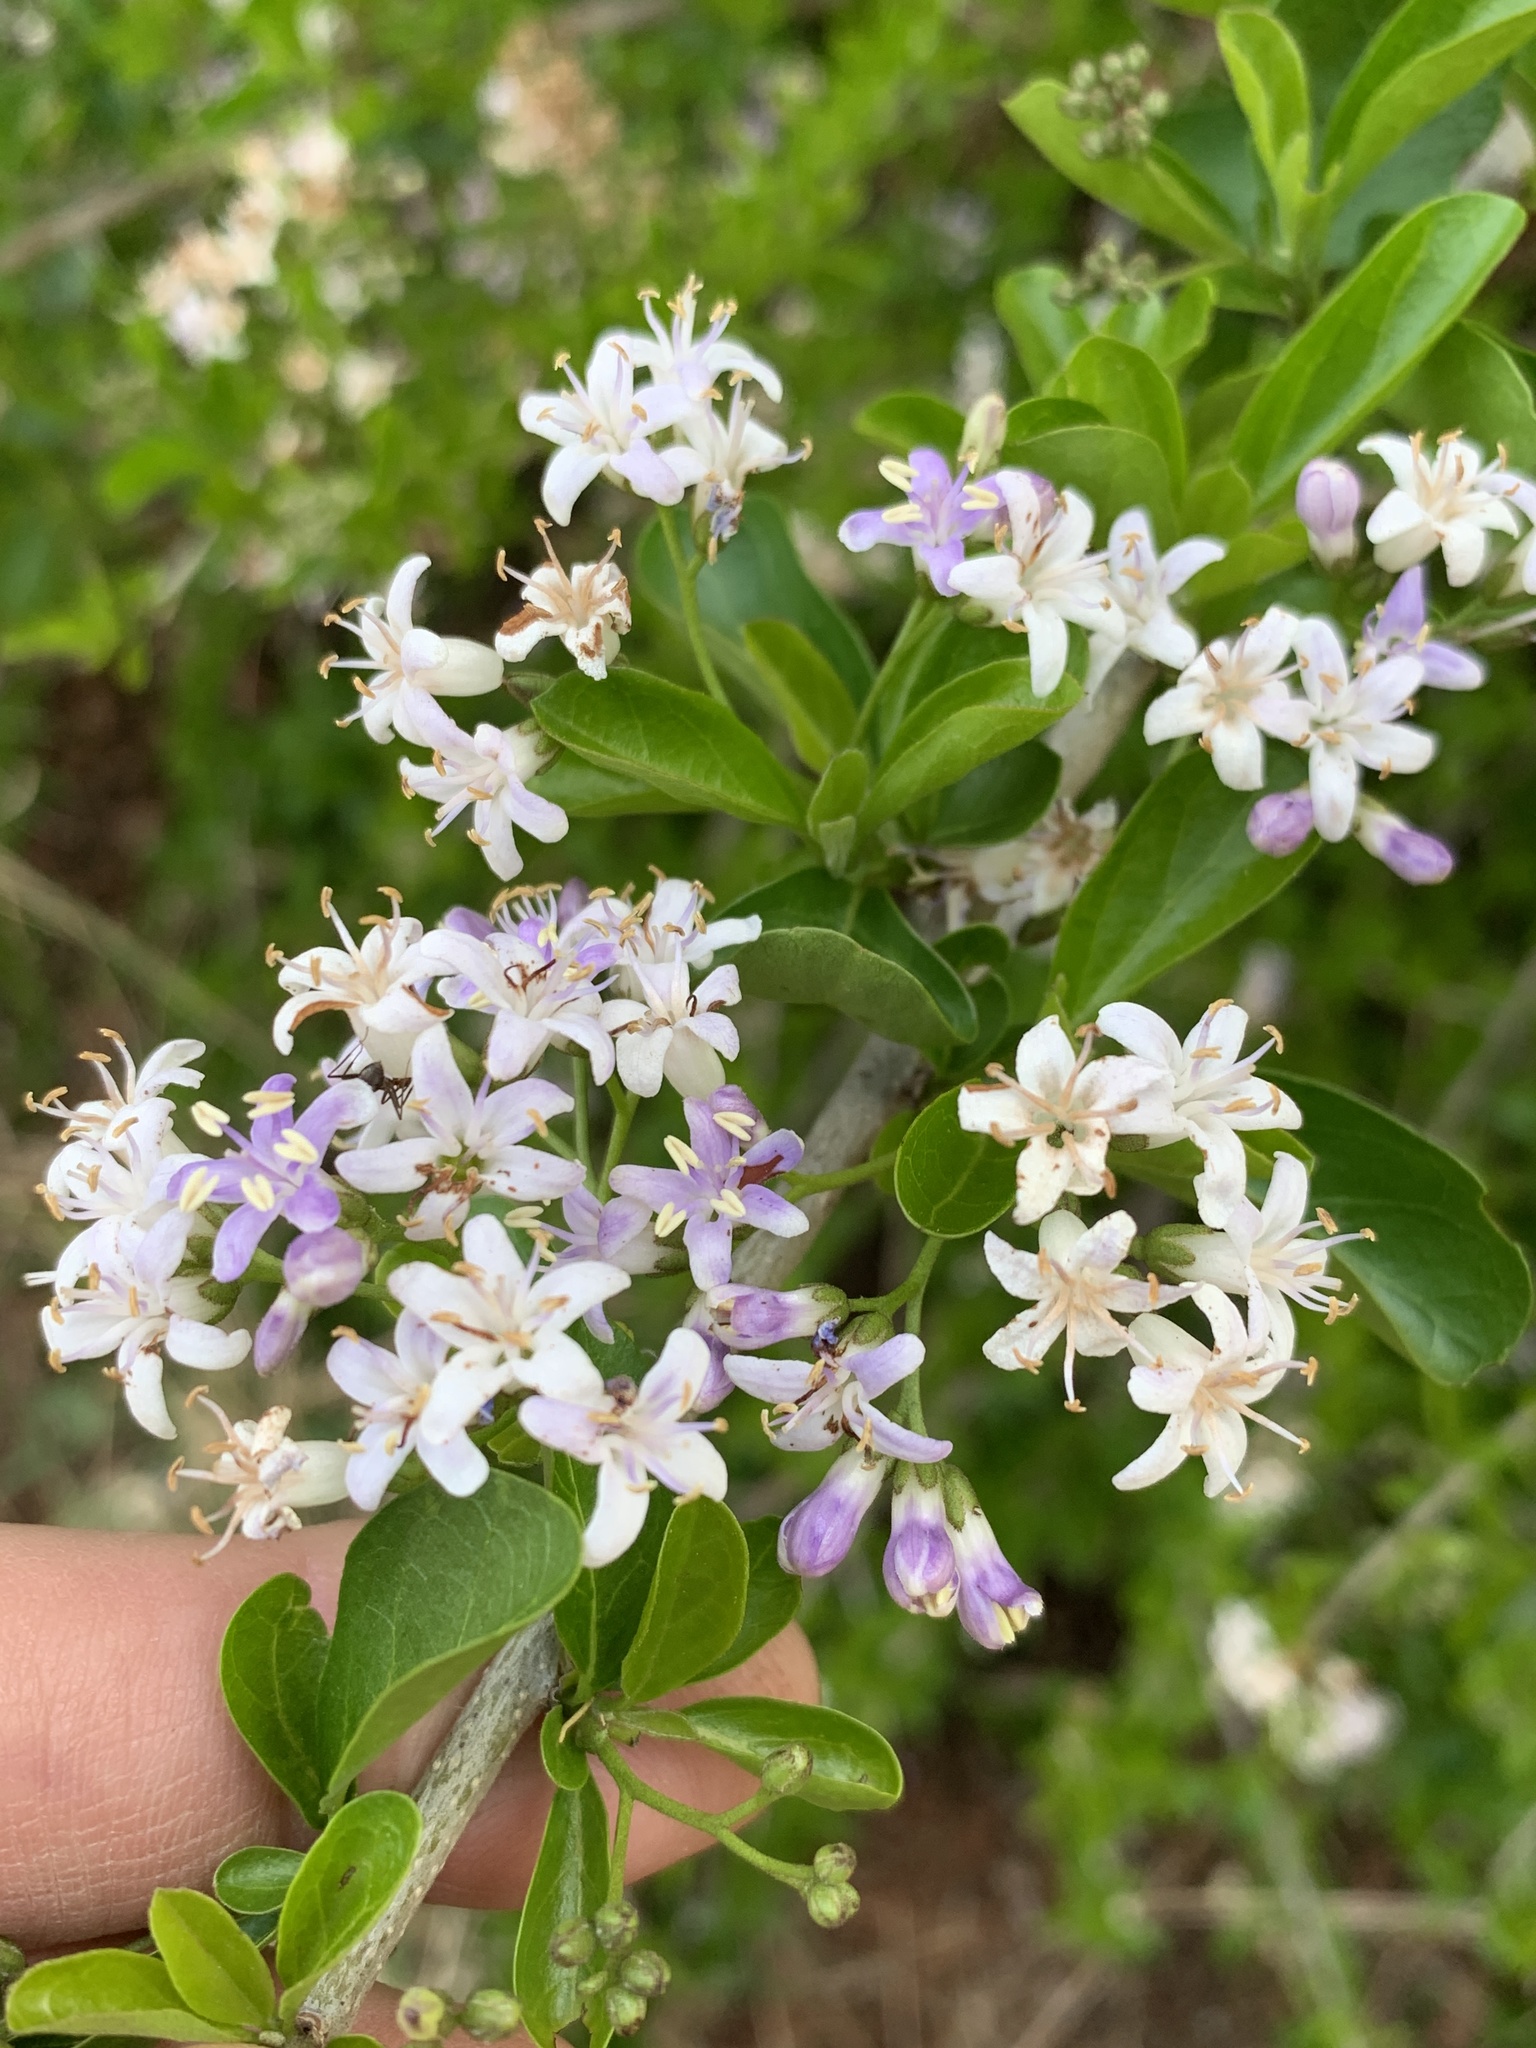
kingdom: Plantae
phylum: Tracheophyta
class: Magnoliopsida
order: Boraginales
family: Ehretiaceae
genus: Ehretia
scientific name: Ehretia rigida
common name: Cape lilac
